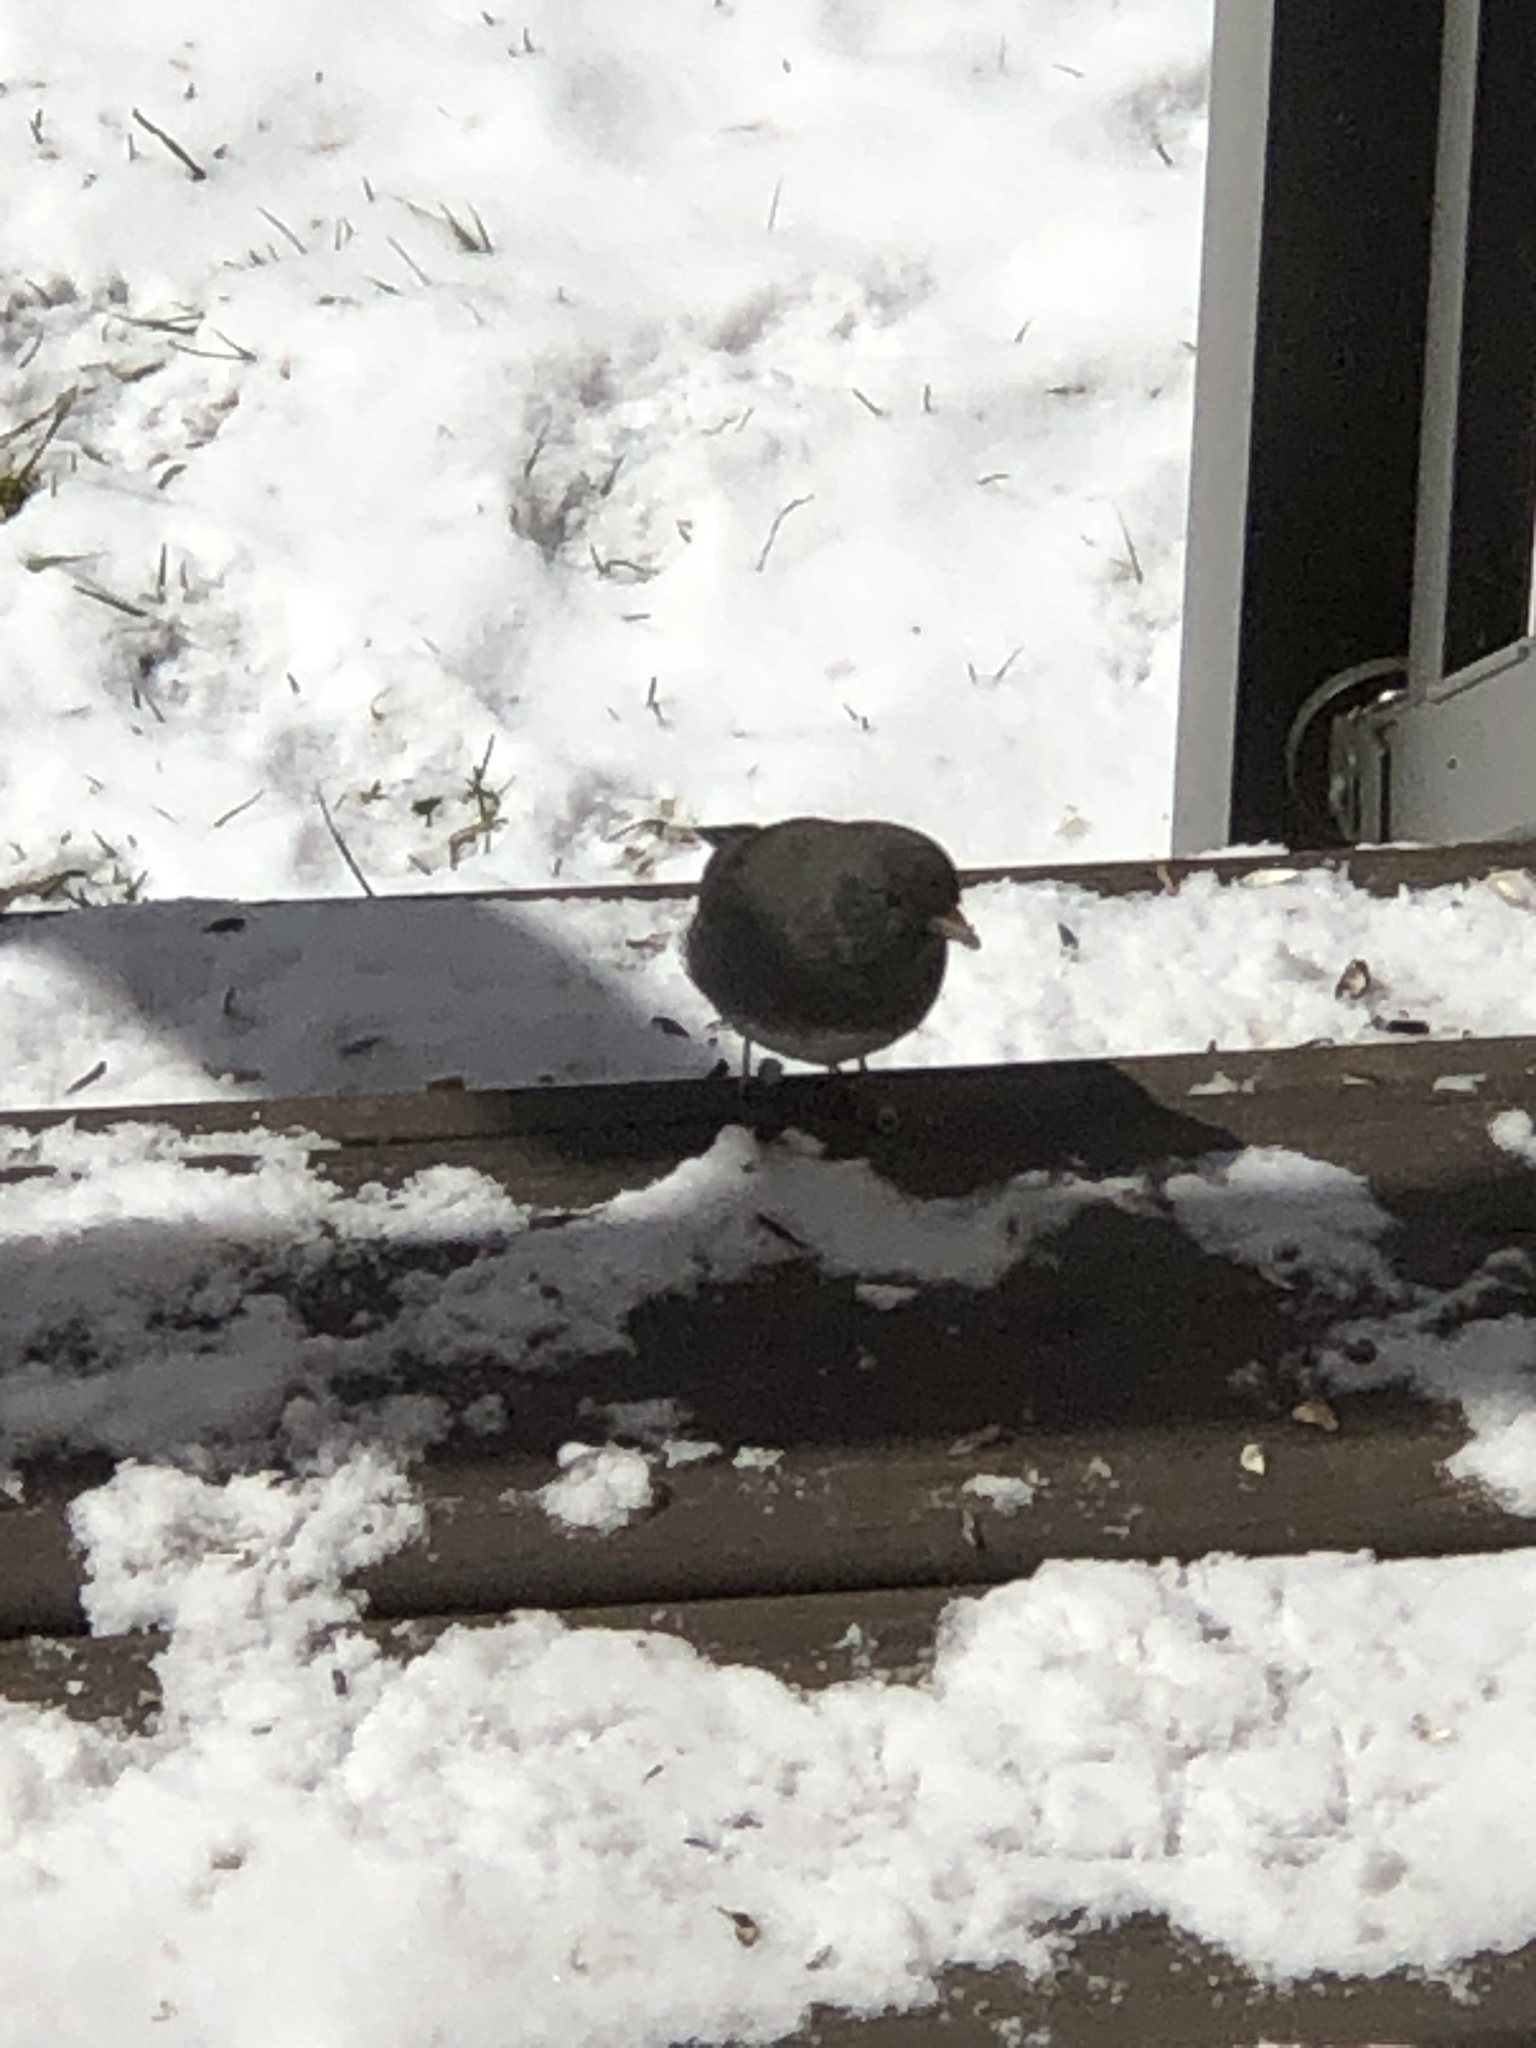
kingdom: Animalia
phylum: Chordata
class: Aves
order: Passeriformes
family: Passerellidae
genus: Junco
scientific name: Junco hyemalis
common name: Dark-eyed junco
